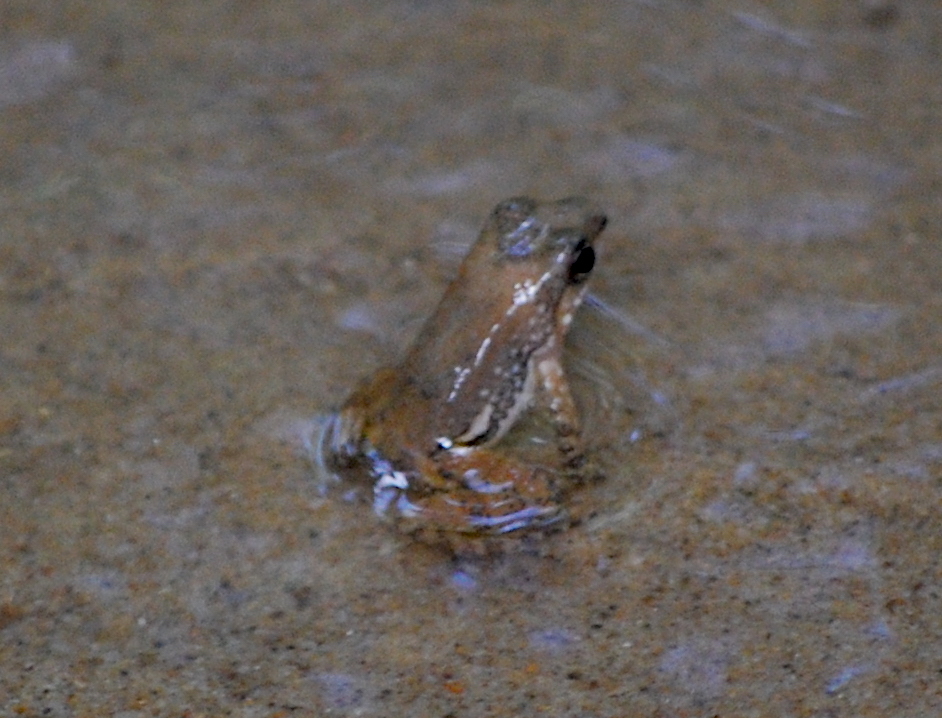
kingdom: Animalia
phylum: Chordata
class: Amphibia
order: Anura
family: Dendrobatidae
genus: Colostethus
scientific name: Colostethus inguinalis
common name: Common rocket frog
